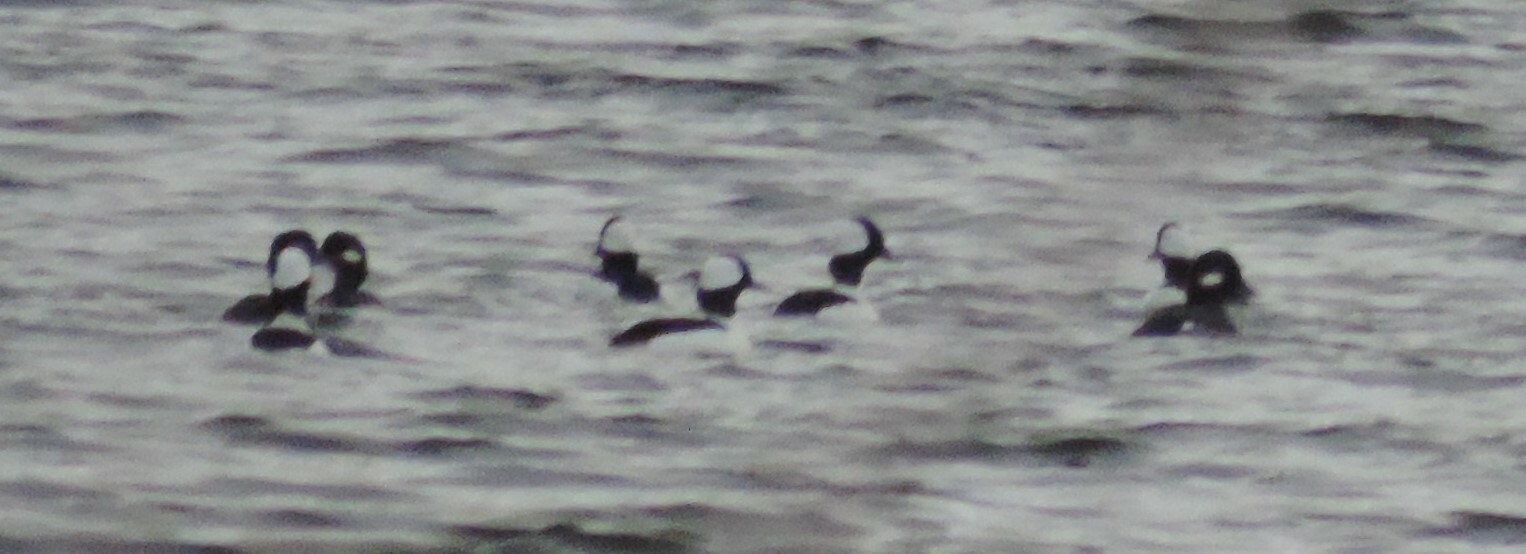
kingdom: Animalia
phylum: Chordata
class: Aves
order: Anseriformes
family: Anatidae
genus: Bucephala
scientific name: Bucephala albeola
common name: Bufflehead
